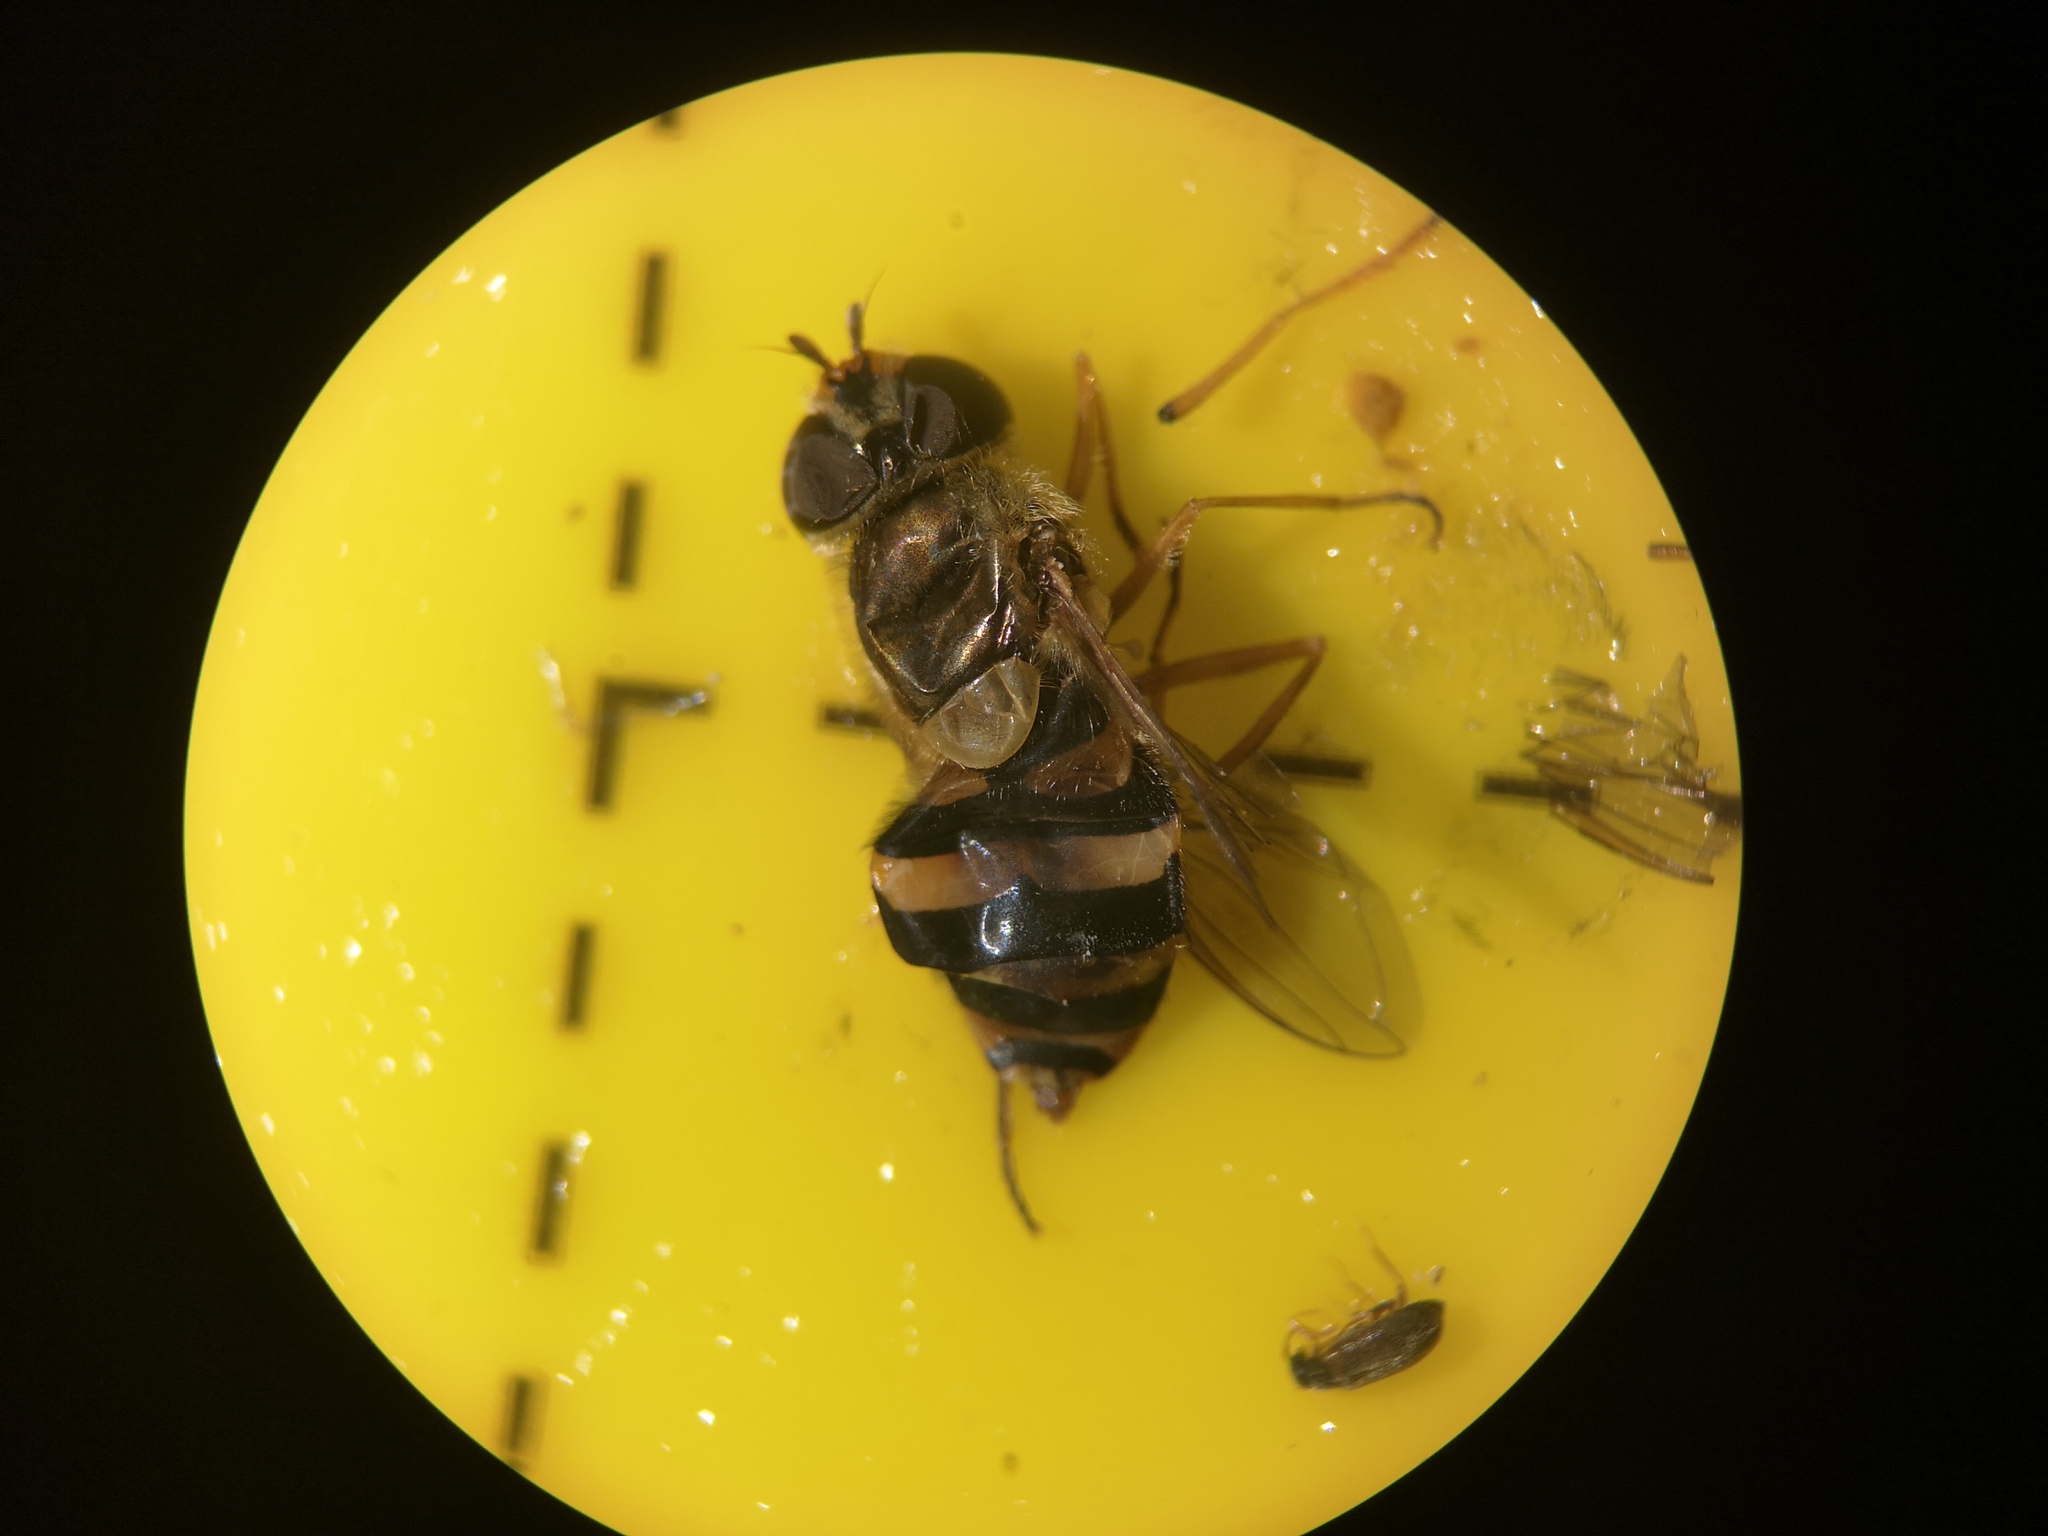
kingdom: Animalia
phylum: Arthropoda
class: Insecta
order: Diptera
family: Syrphidae
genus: Syrphus
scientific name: Syrphus ribesii
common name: Common flower fly
